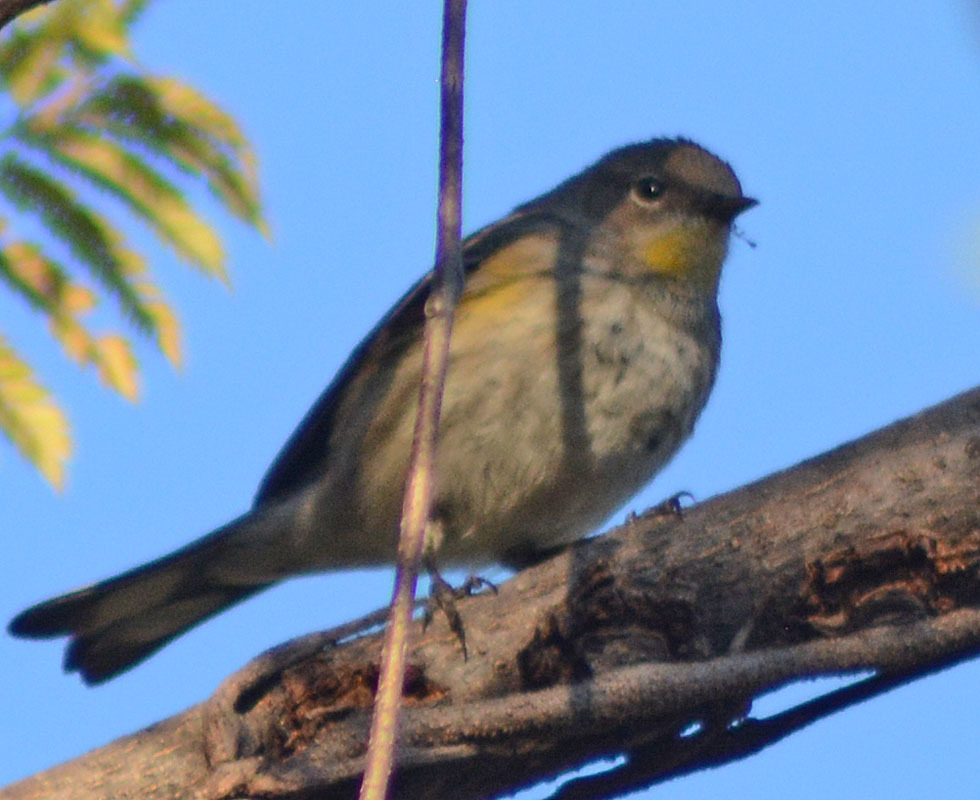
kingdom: Animalia
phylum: Chordata
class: Aves
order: Passeriformes
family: Parulidae
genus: Setophaga
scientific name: Setophaga auduboni
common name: Audubon's warbler
